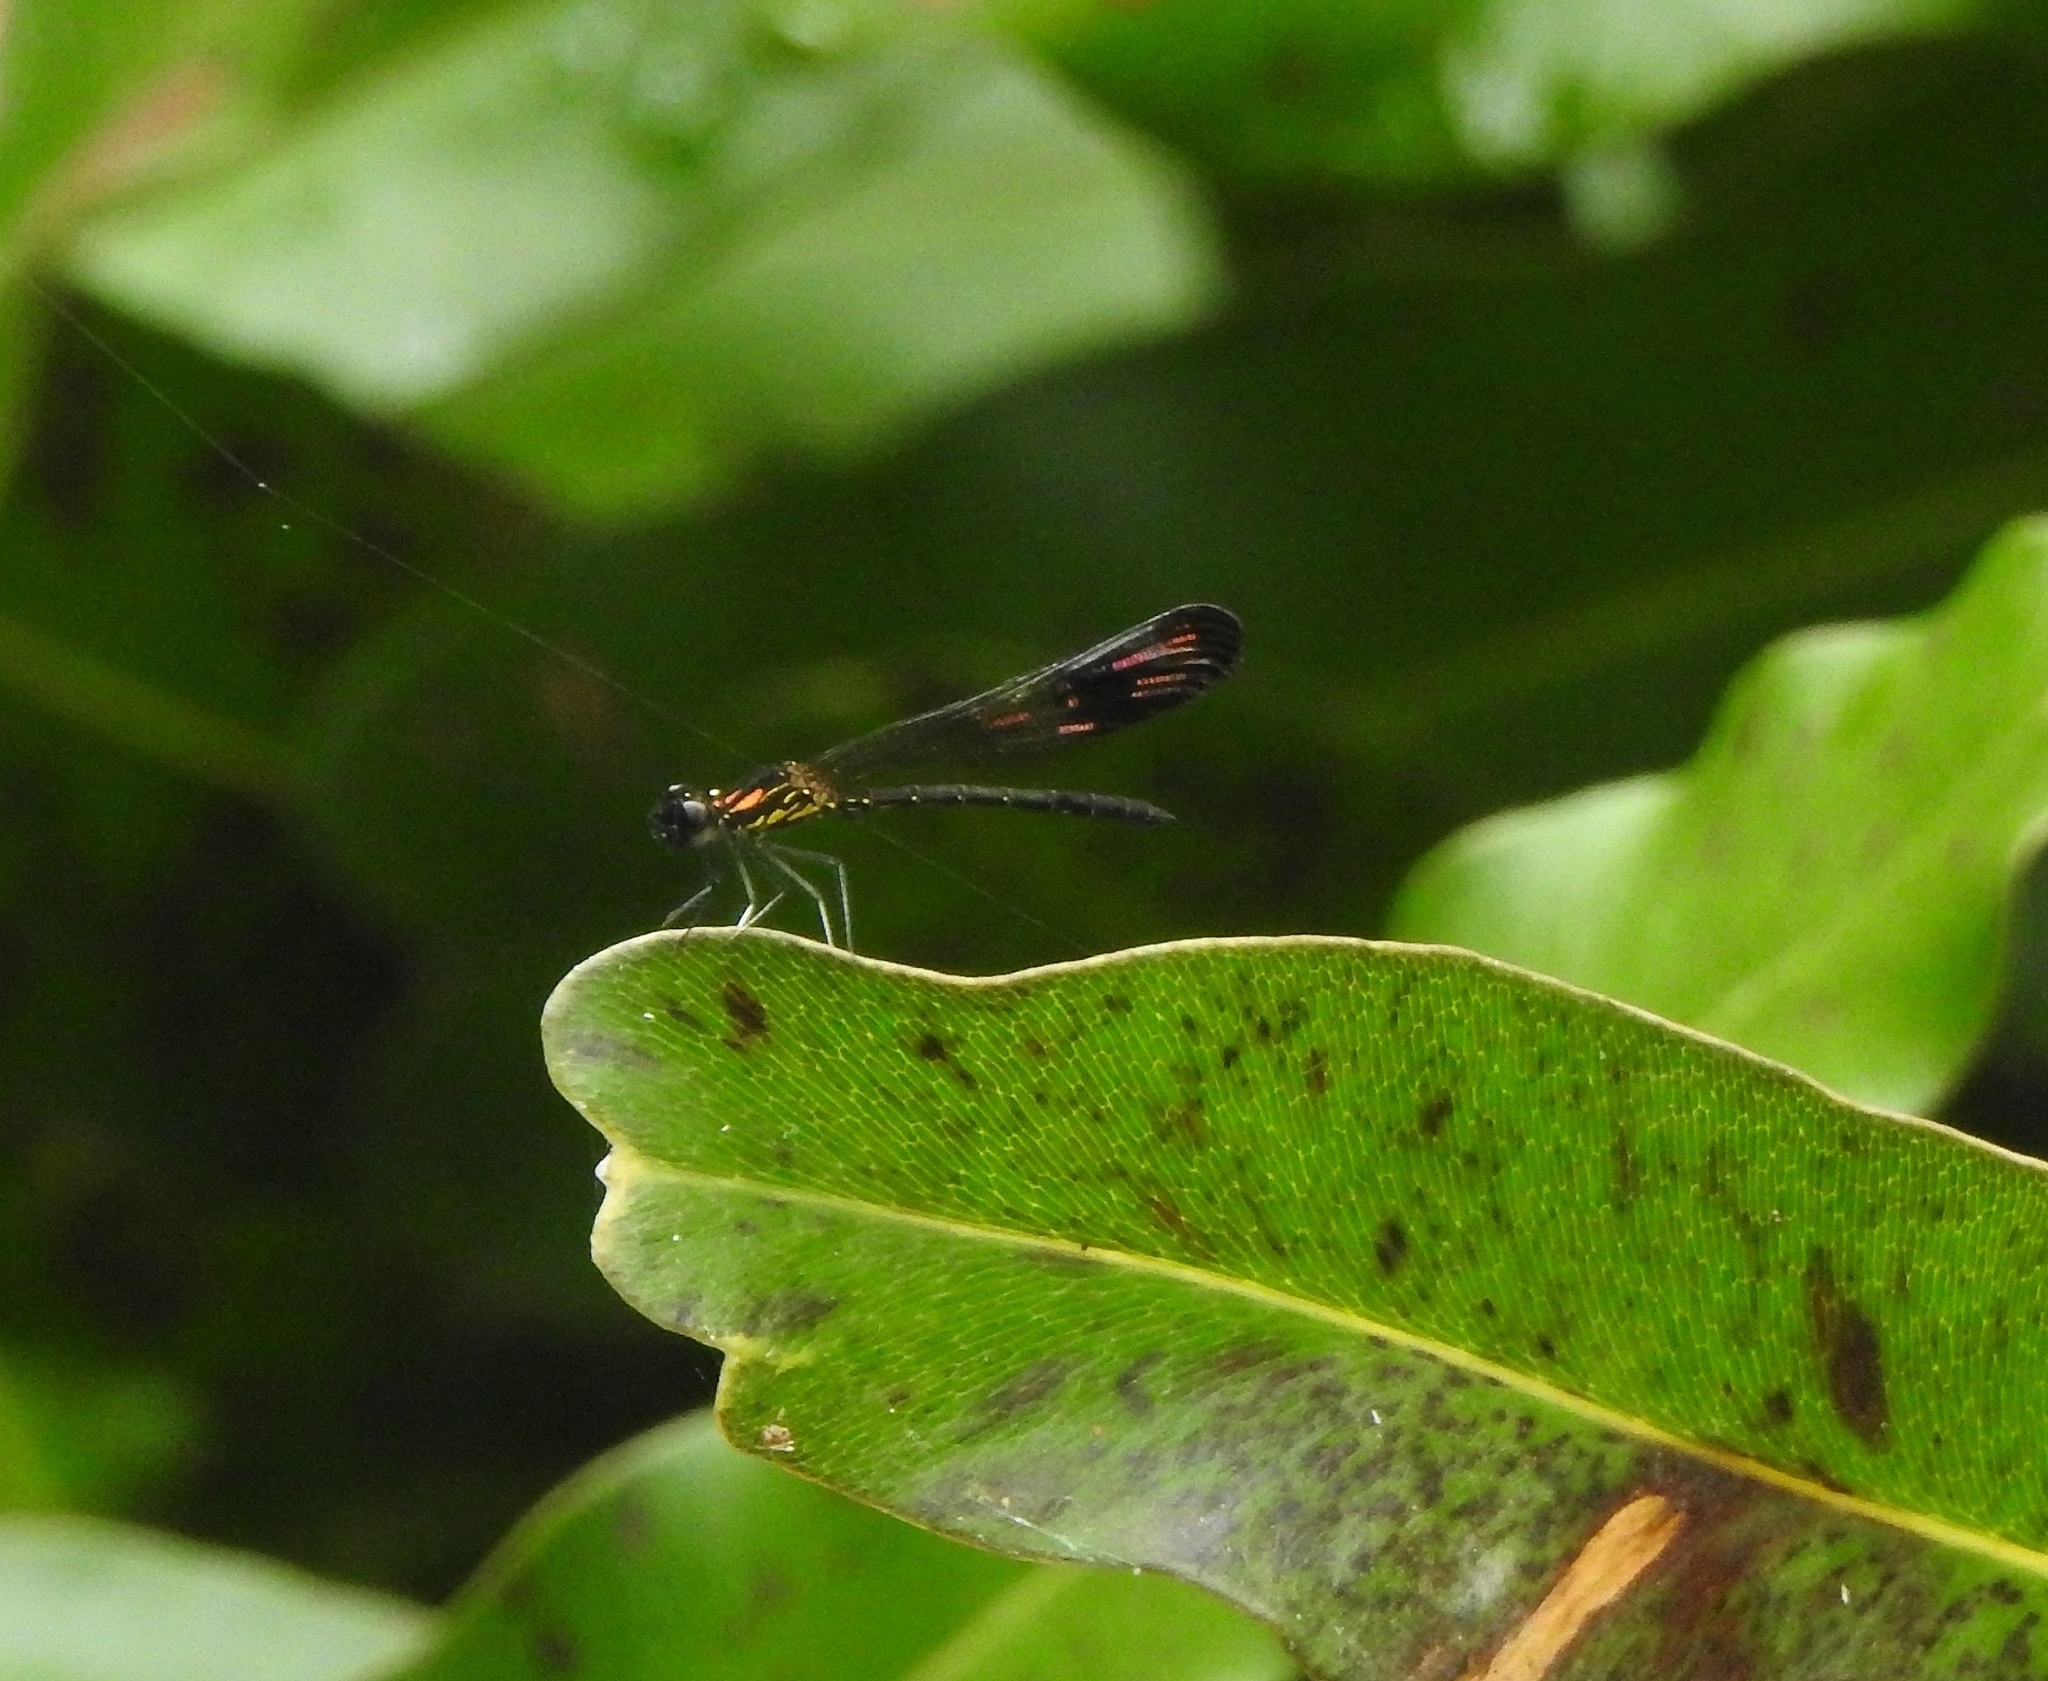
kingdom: Animalia
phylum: Arthropoda
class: Insecta
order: Odonata
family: Chlorocyphidae
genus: Heliocypha
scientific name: Heliocypha bisignata
